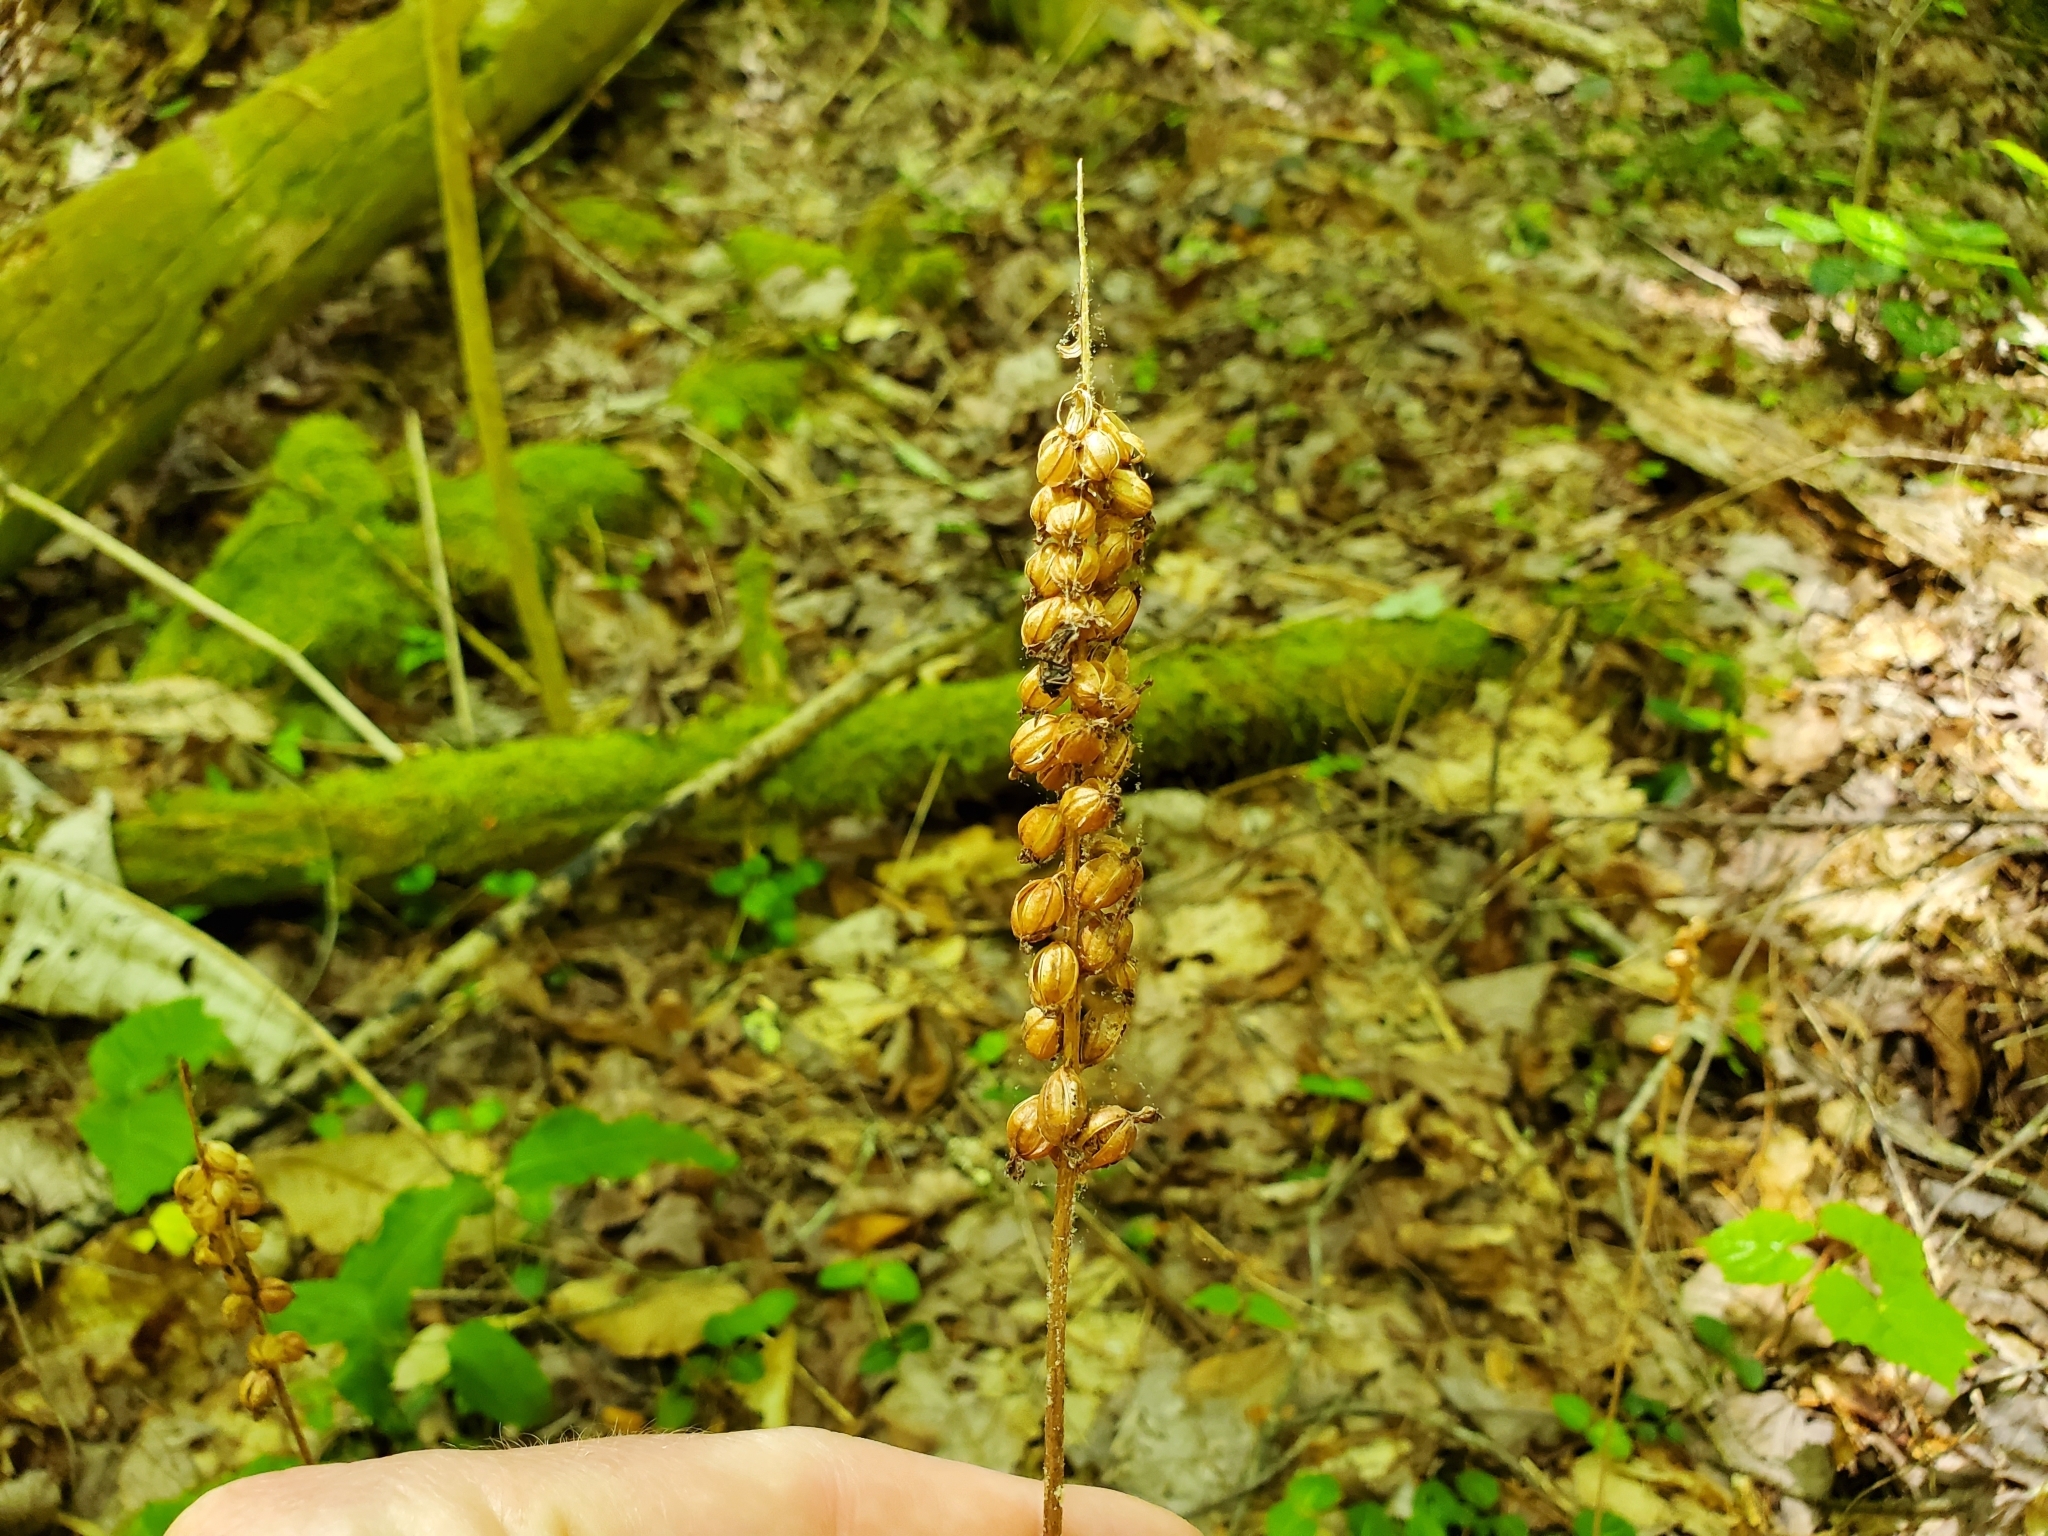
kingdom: Plantae
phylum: Tracheophyta
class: Liliopsida
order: Asparagales
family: Orchidaceae
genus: Goodyera
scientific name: Goodyera pubescens
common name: Downy rattlesnake-plantain
